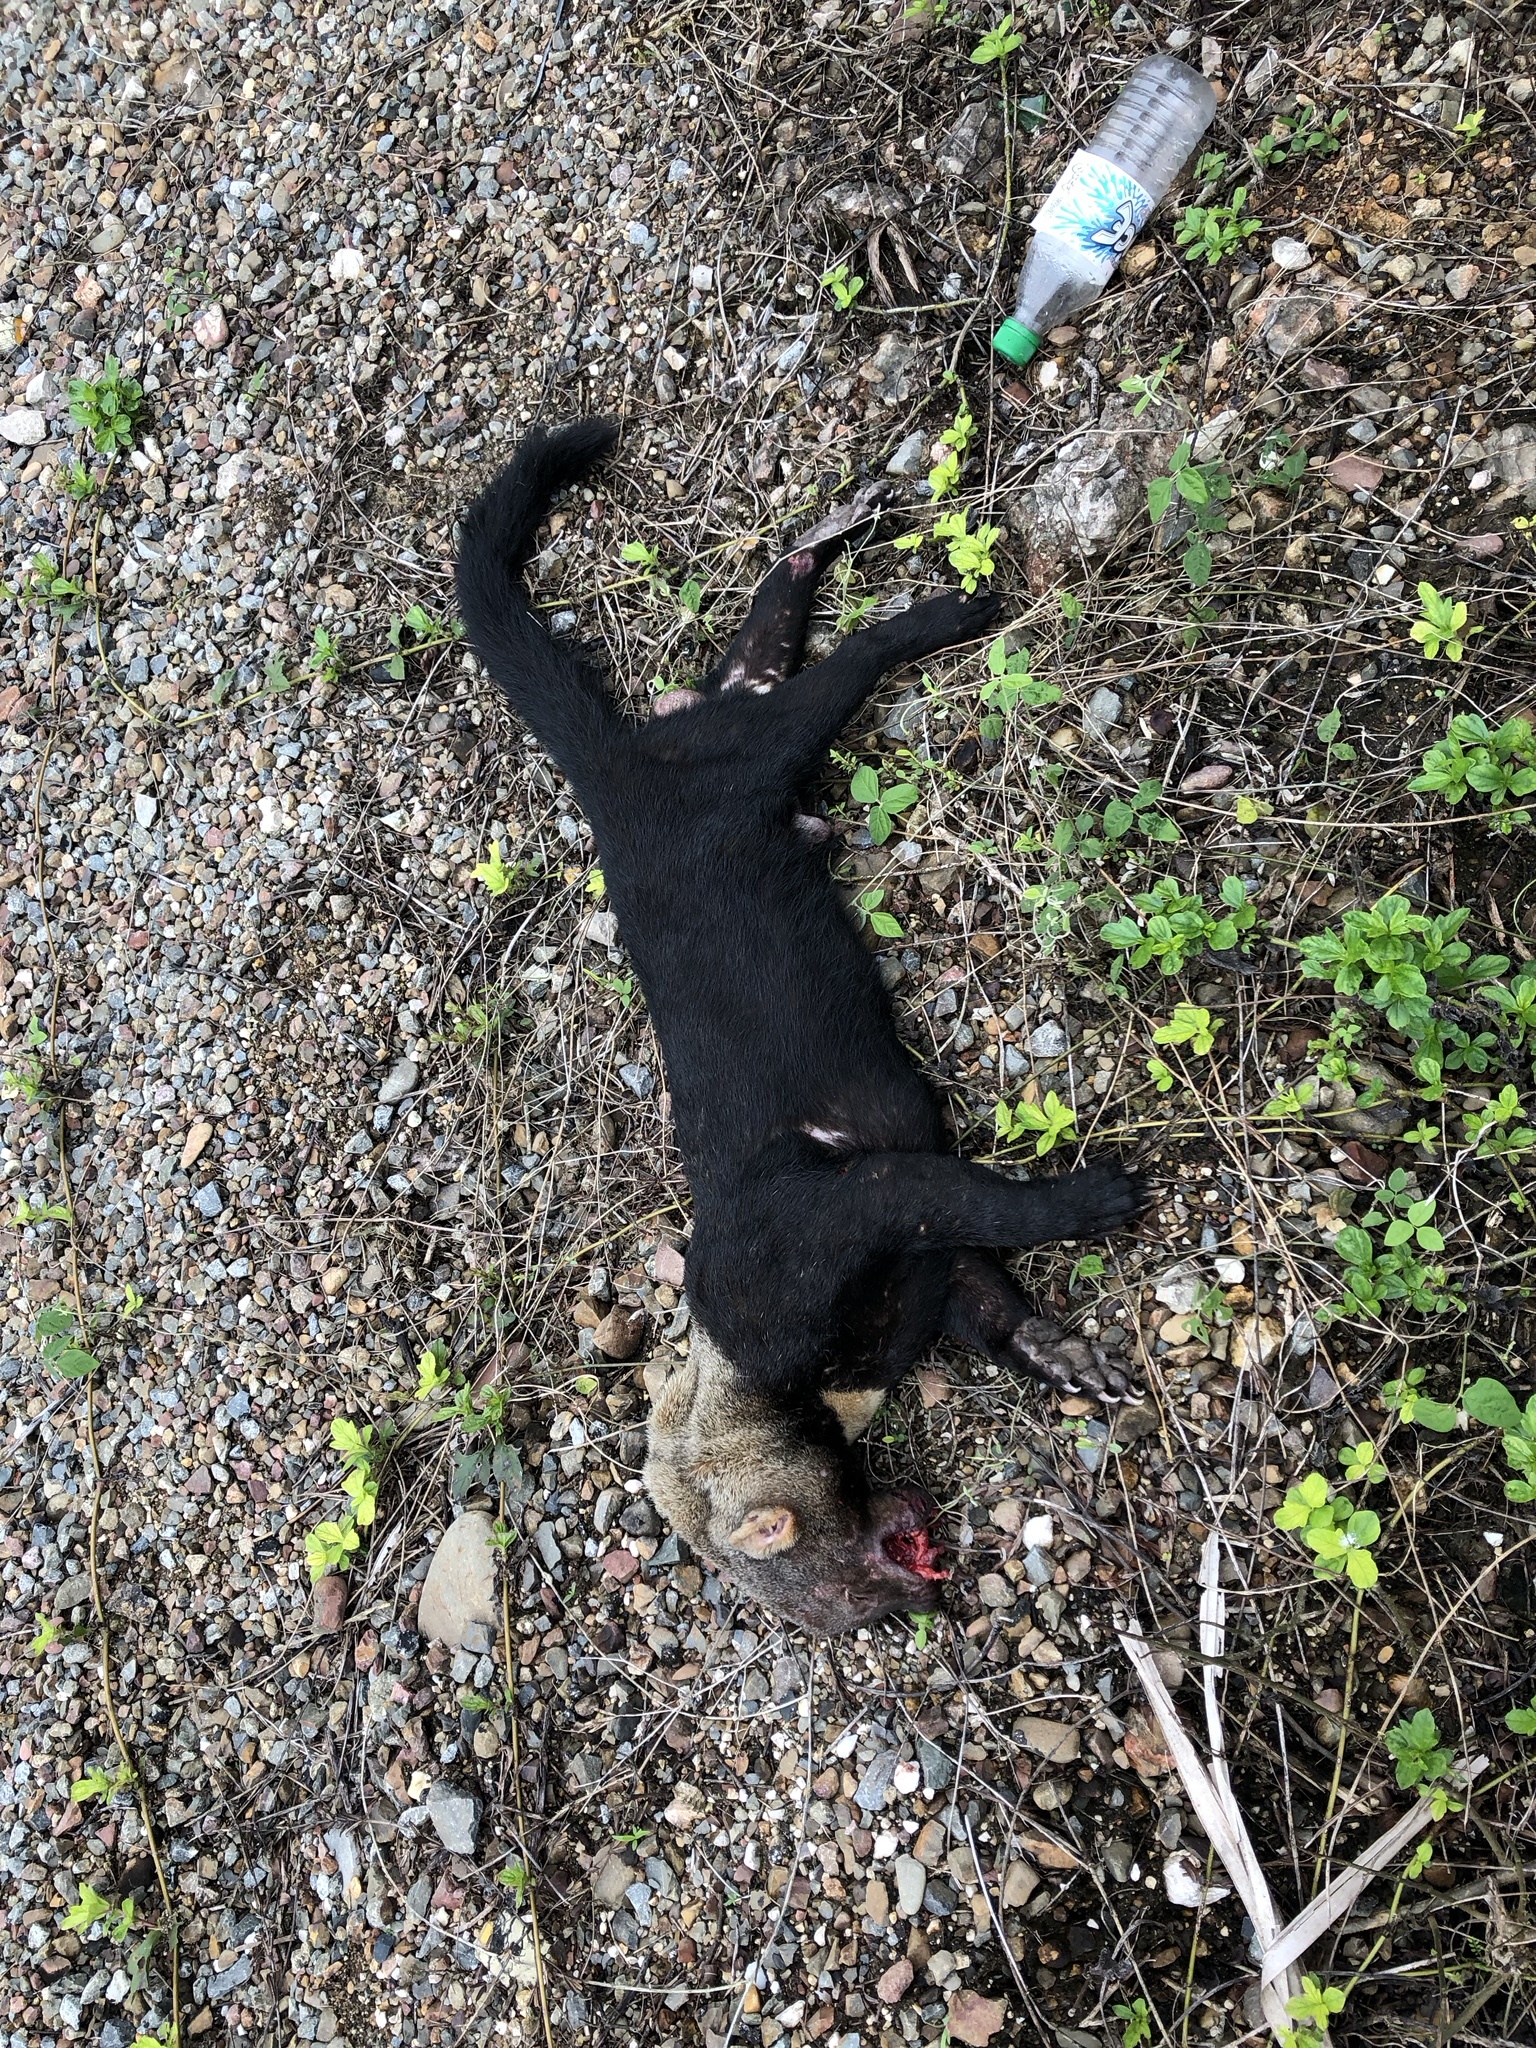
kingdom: Animalia
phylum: Chordata
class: Mammalia
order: Carnivora
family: Mustelidae
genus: Eira
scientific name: Eira barbara
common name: Tayra
